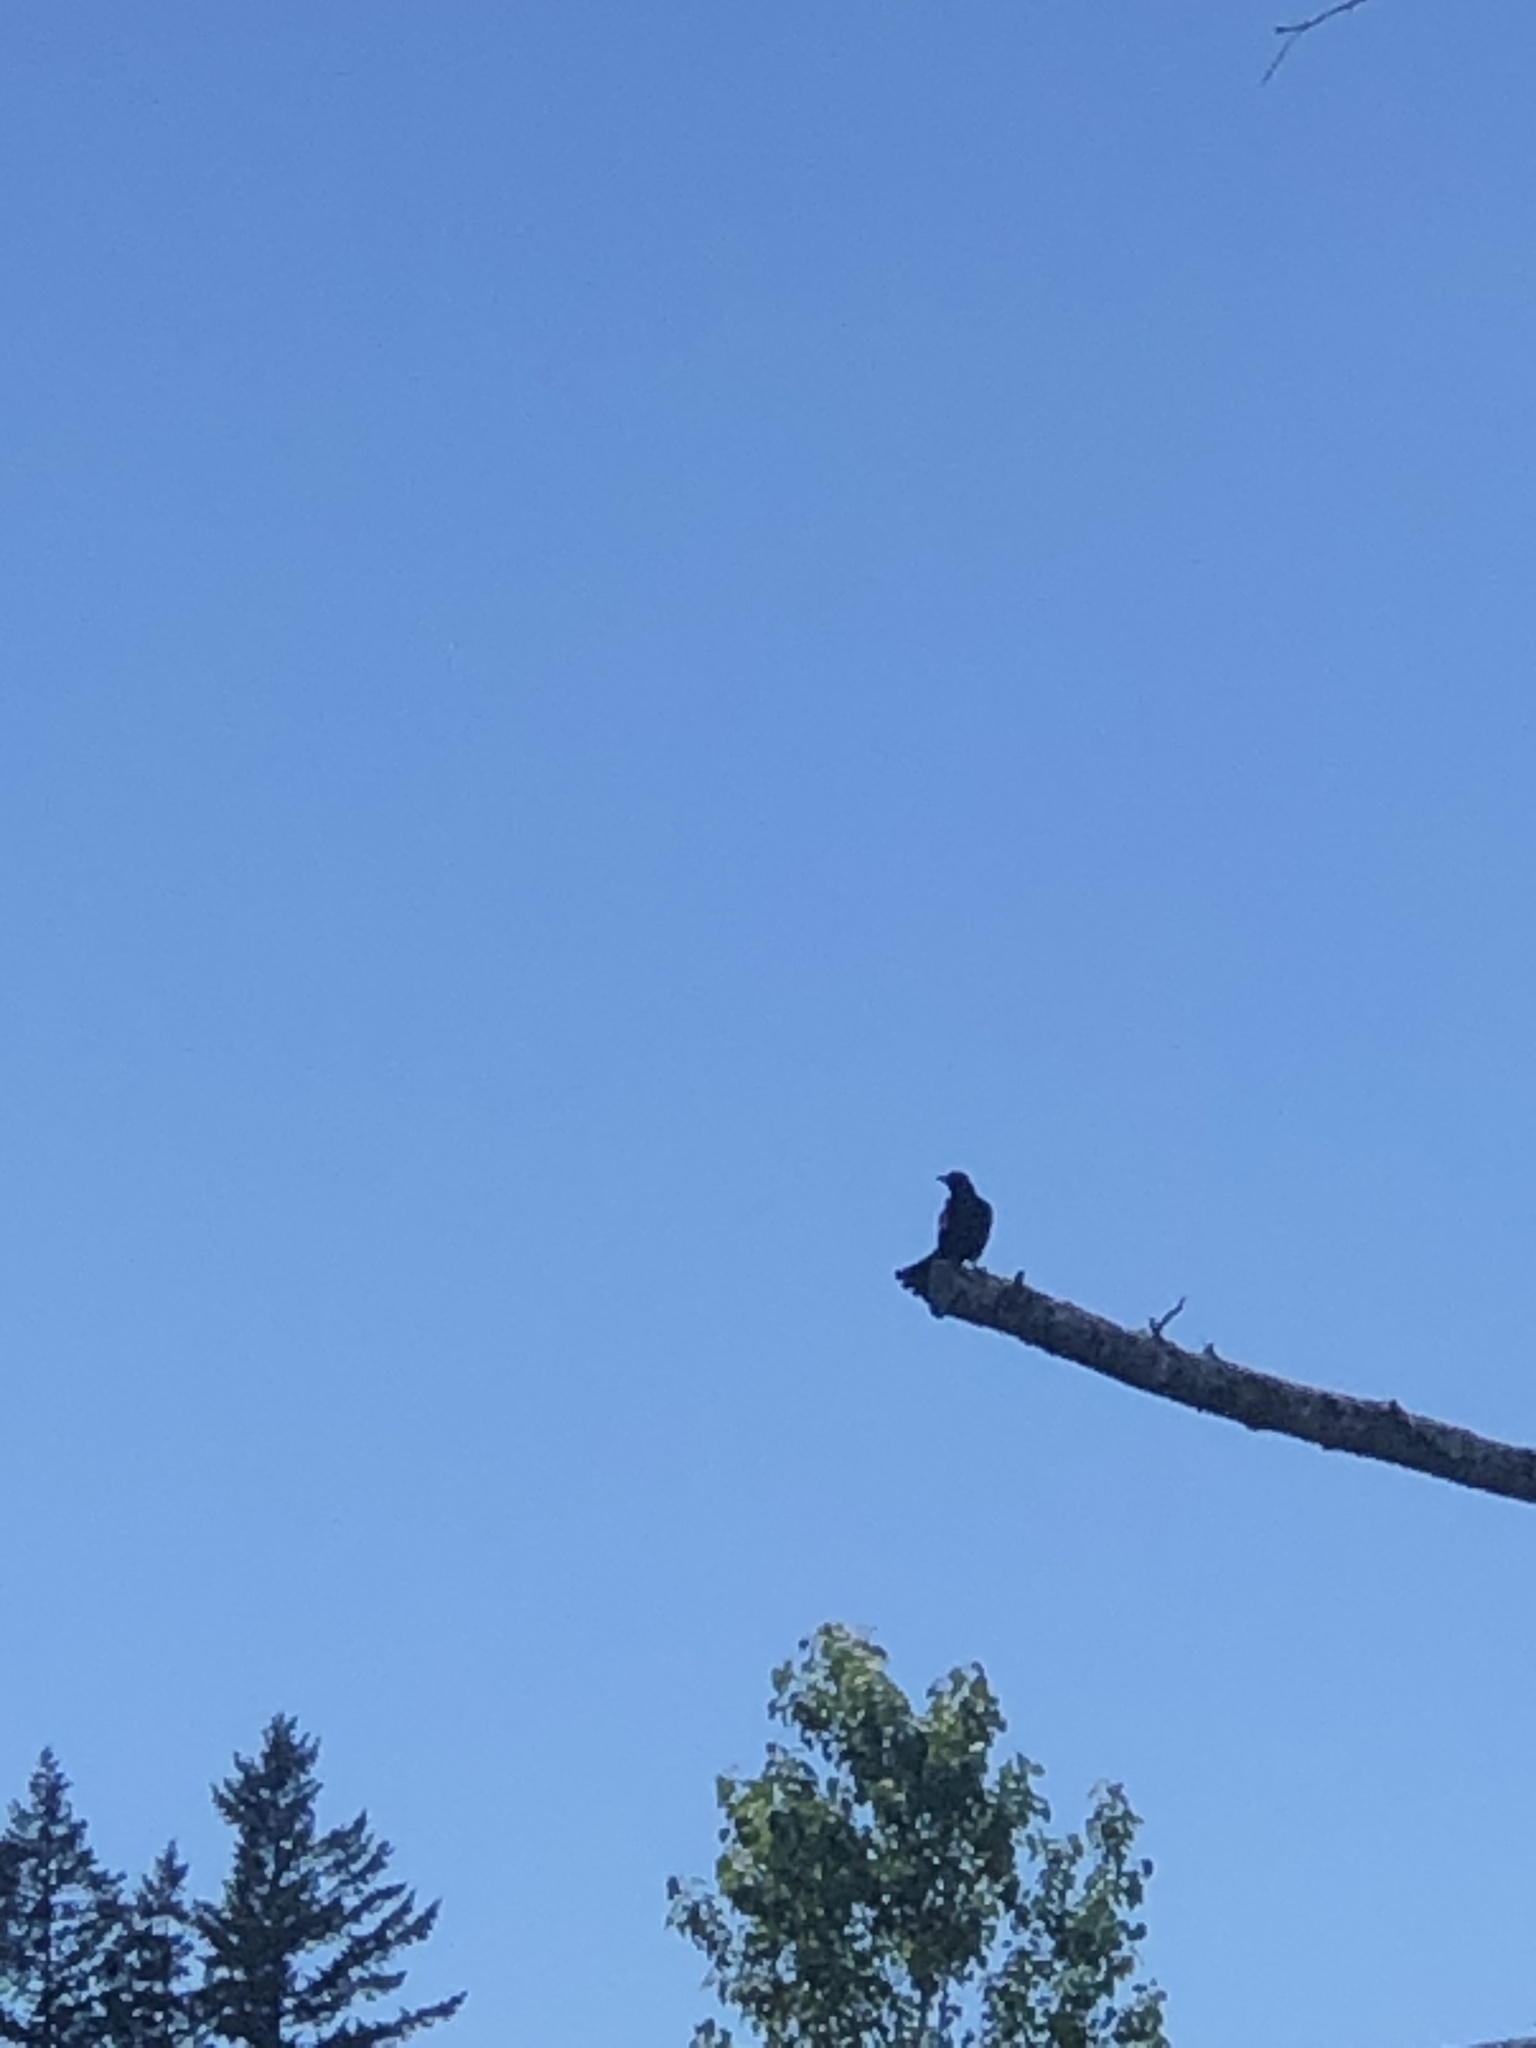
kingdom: Animalia
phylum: Chordata
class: Aves
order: Passeriformes
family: Icteridae
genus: Agelaius
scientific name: Agelaius phoeniceus
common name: Red-winged blackbird
